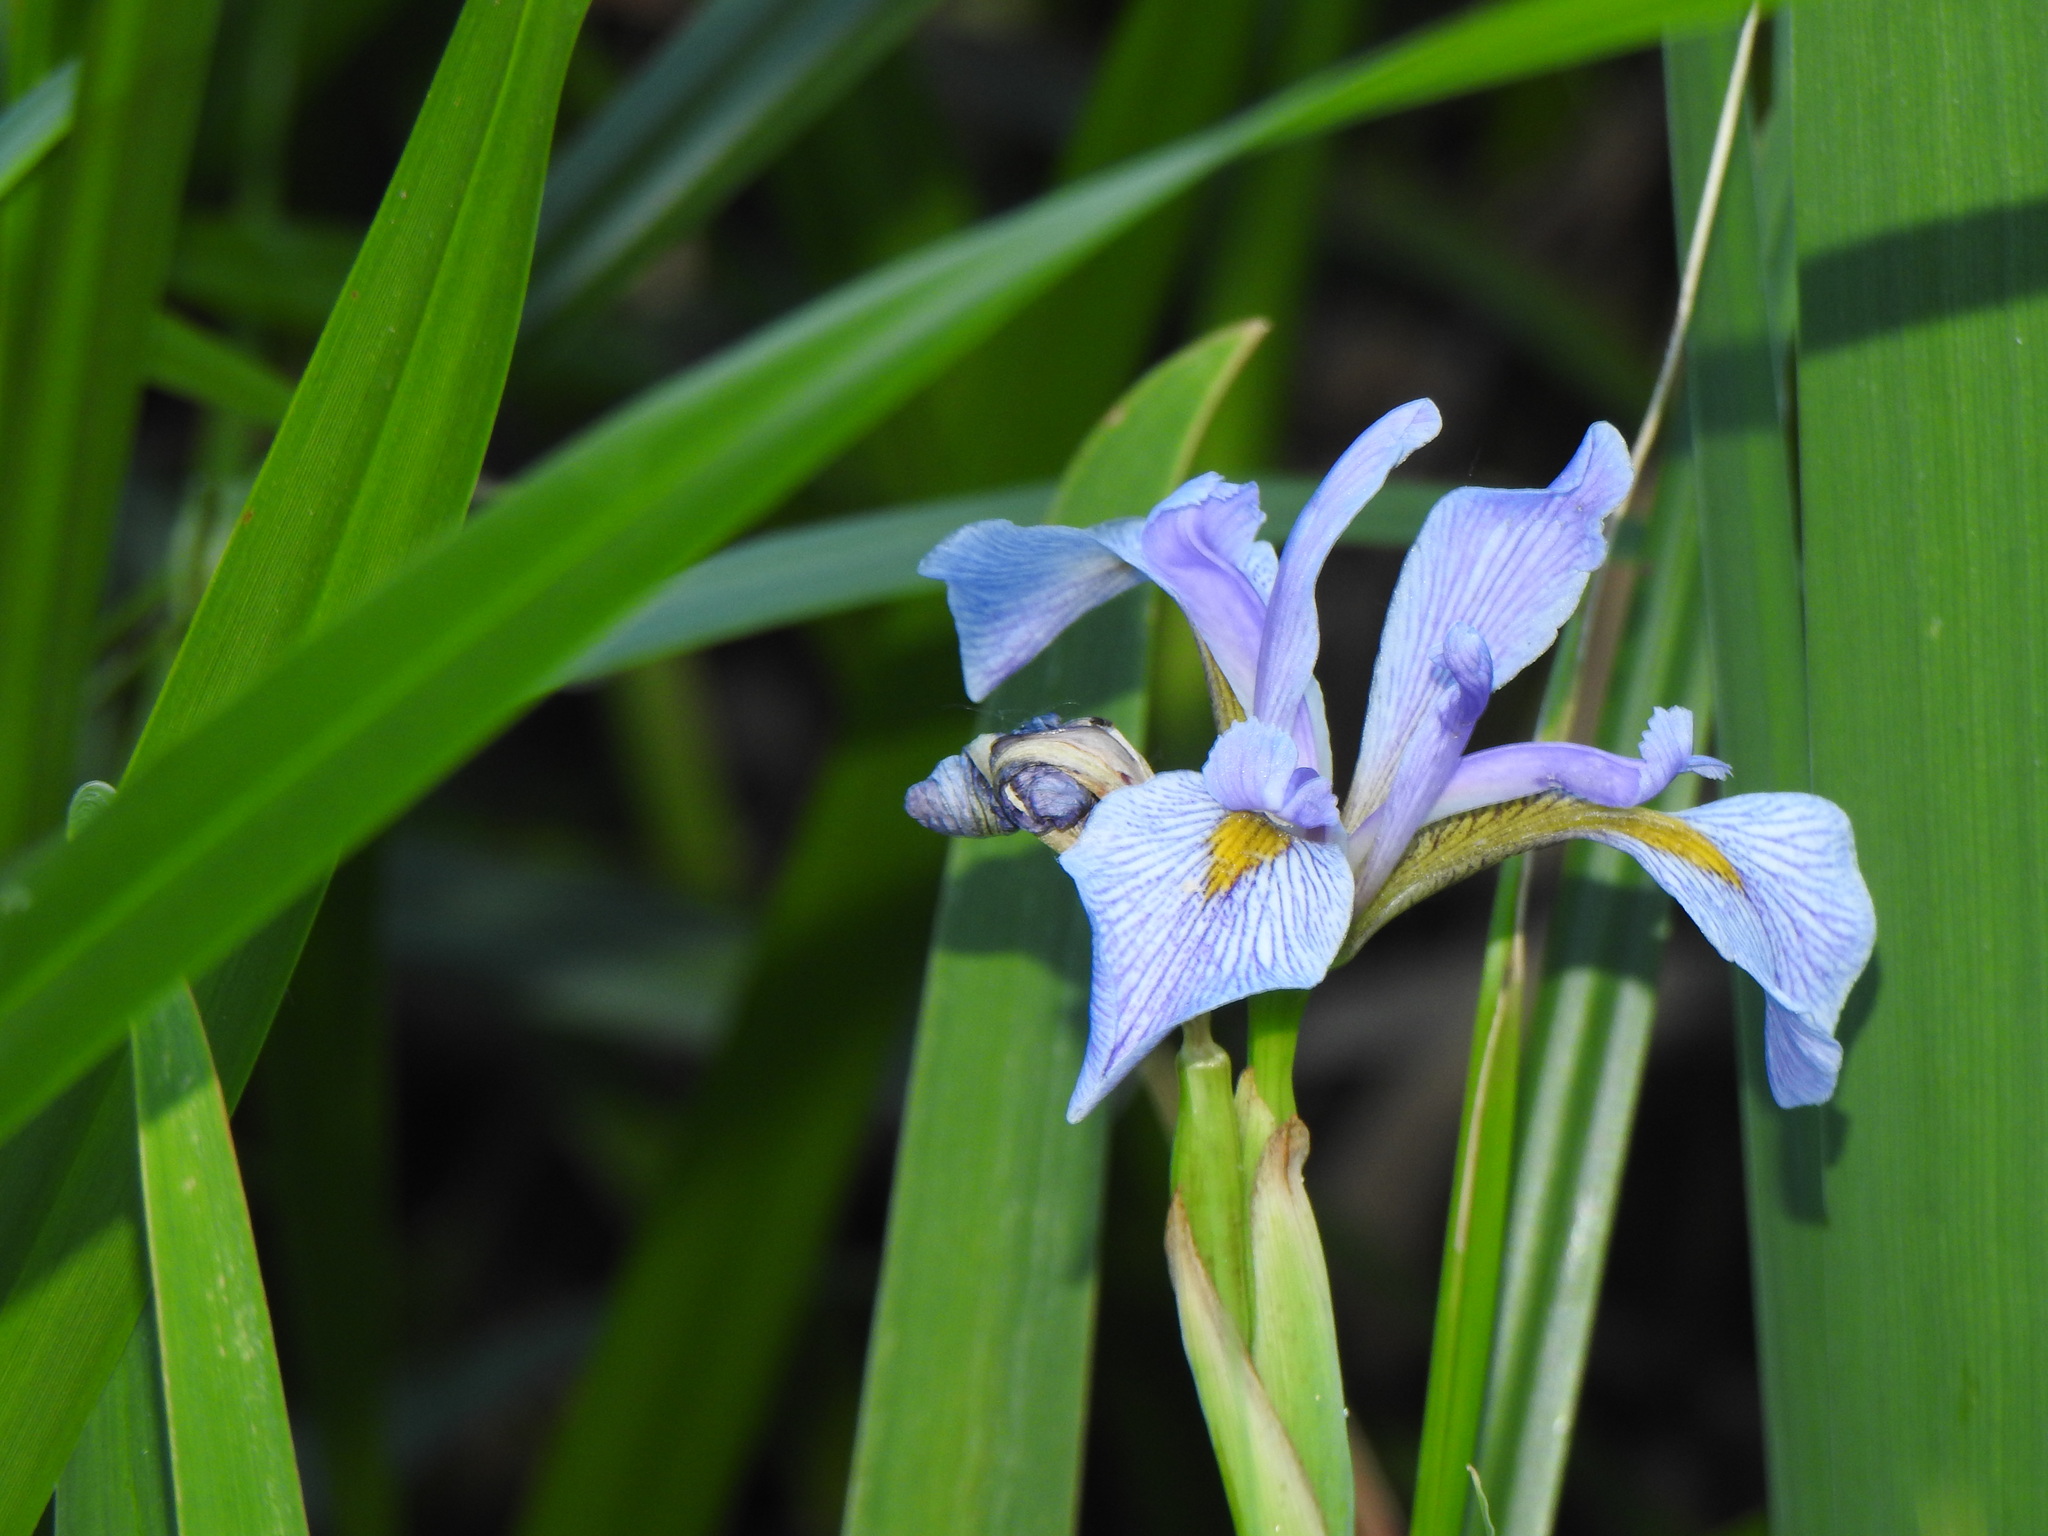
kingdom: Plantae
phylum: Tracheophyta
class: Liliopsida
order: Asparagales
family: Iridaceae
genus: Iris
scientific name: Iris virginica
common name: Southern blue flag
